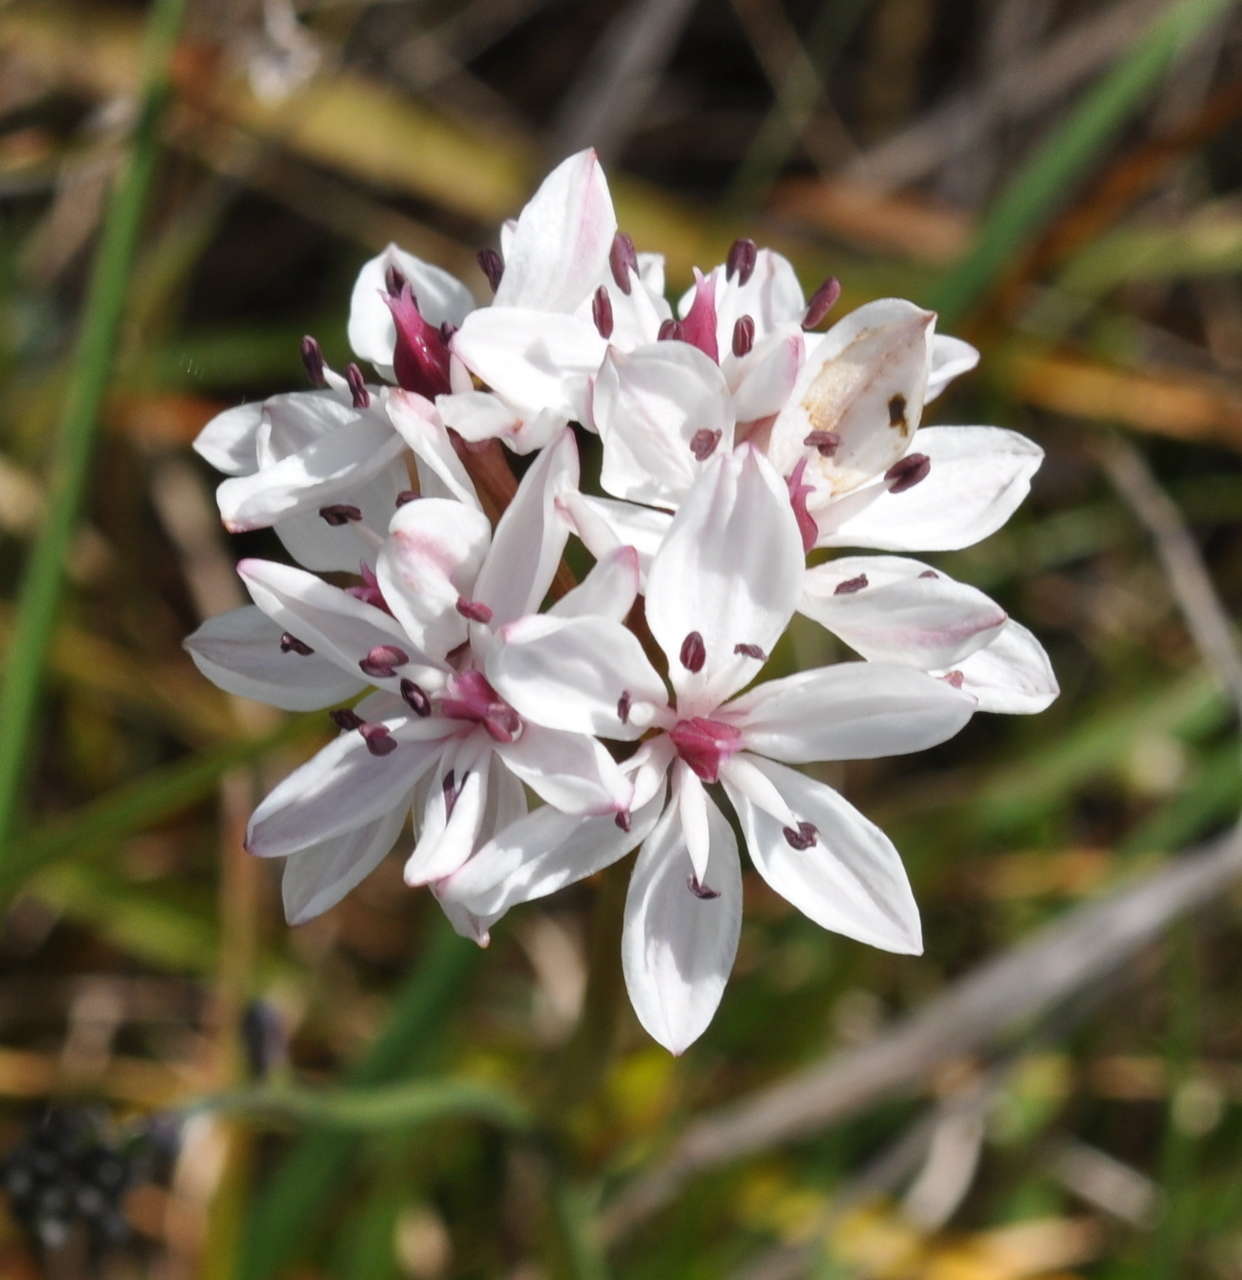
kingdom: Plantae
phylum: Tracheophyta
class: Liliopsida
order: Liliales
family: Colchicaceae
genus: Burchardia
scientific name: Burchardia umbellata
